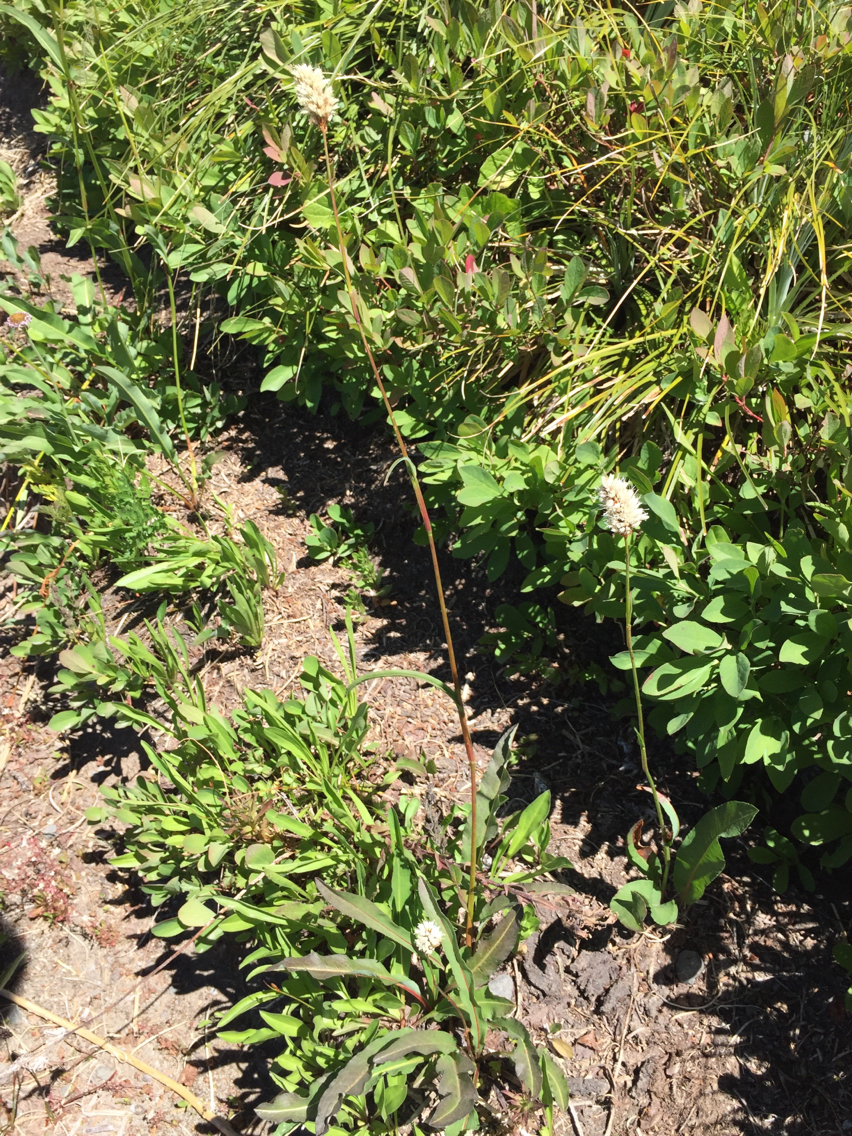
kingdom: Plantae
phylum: Tracheophyta
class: Magnoliopsida
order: Caryophyllales
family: Polygonaceae
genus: Bistorta
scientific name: Bistorta bistortoides
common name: American bistort
